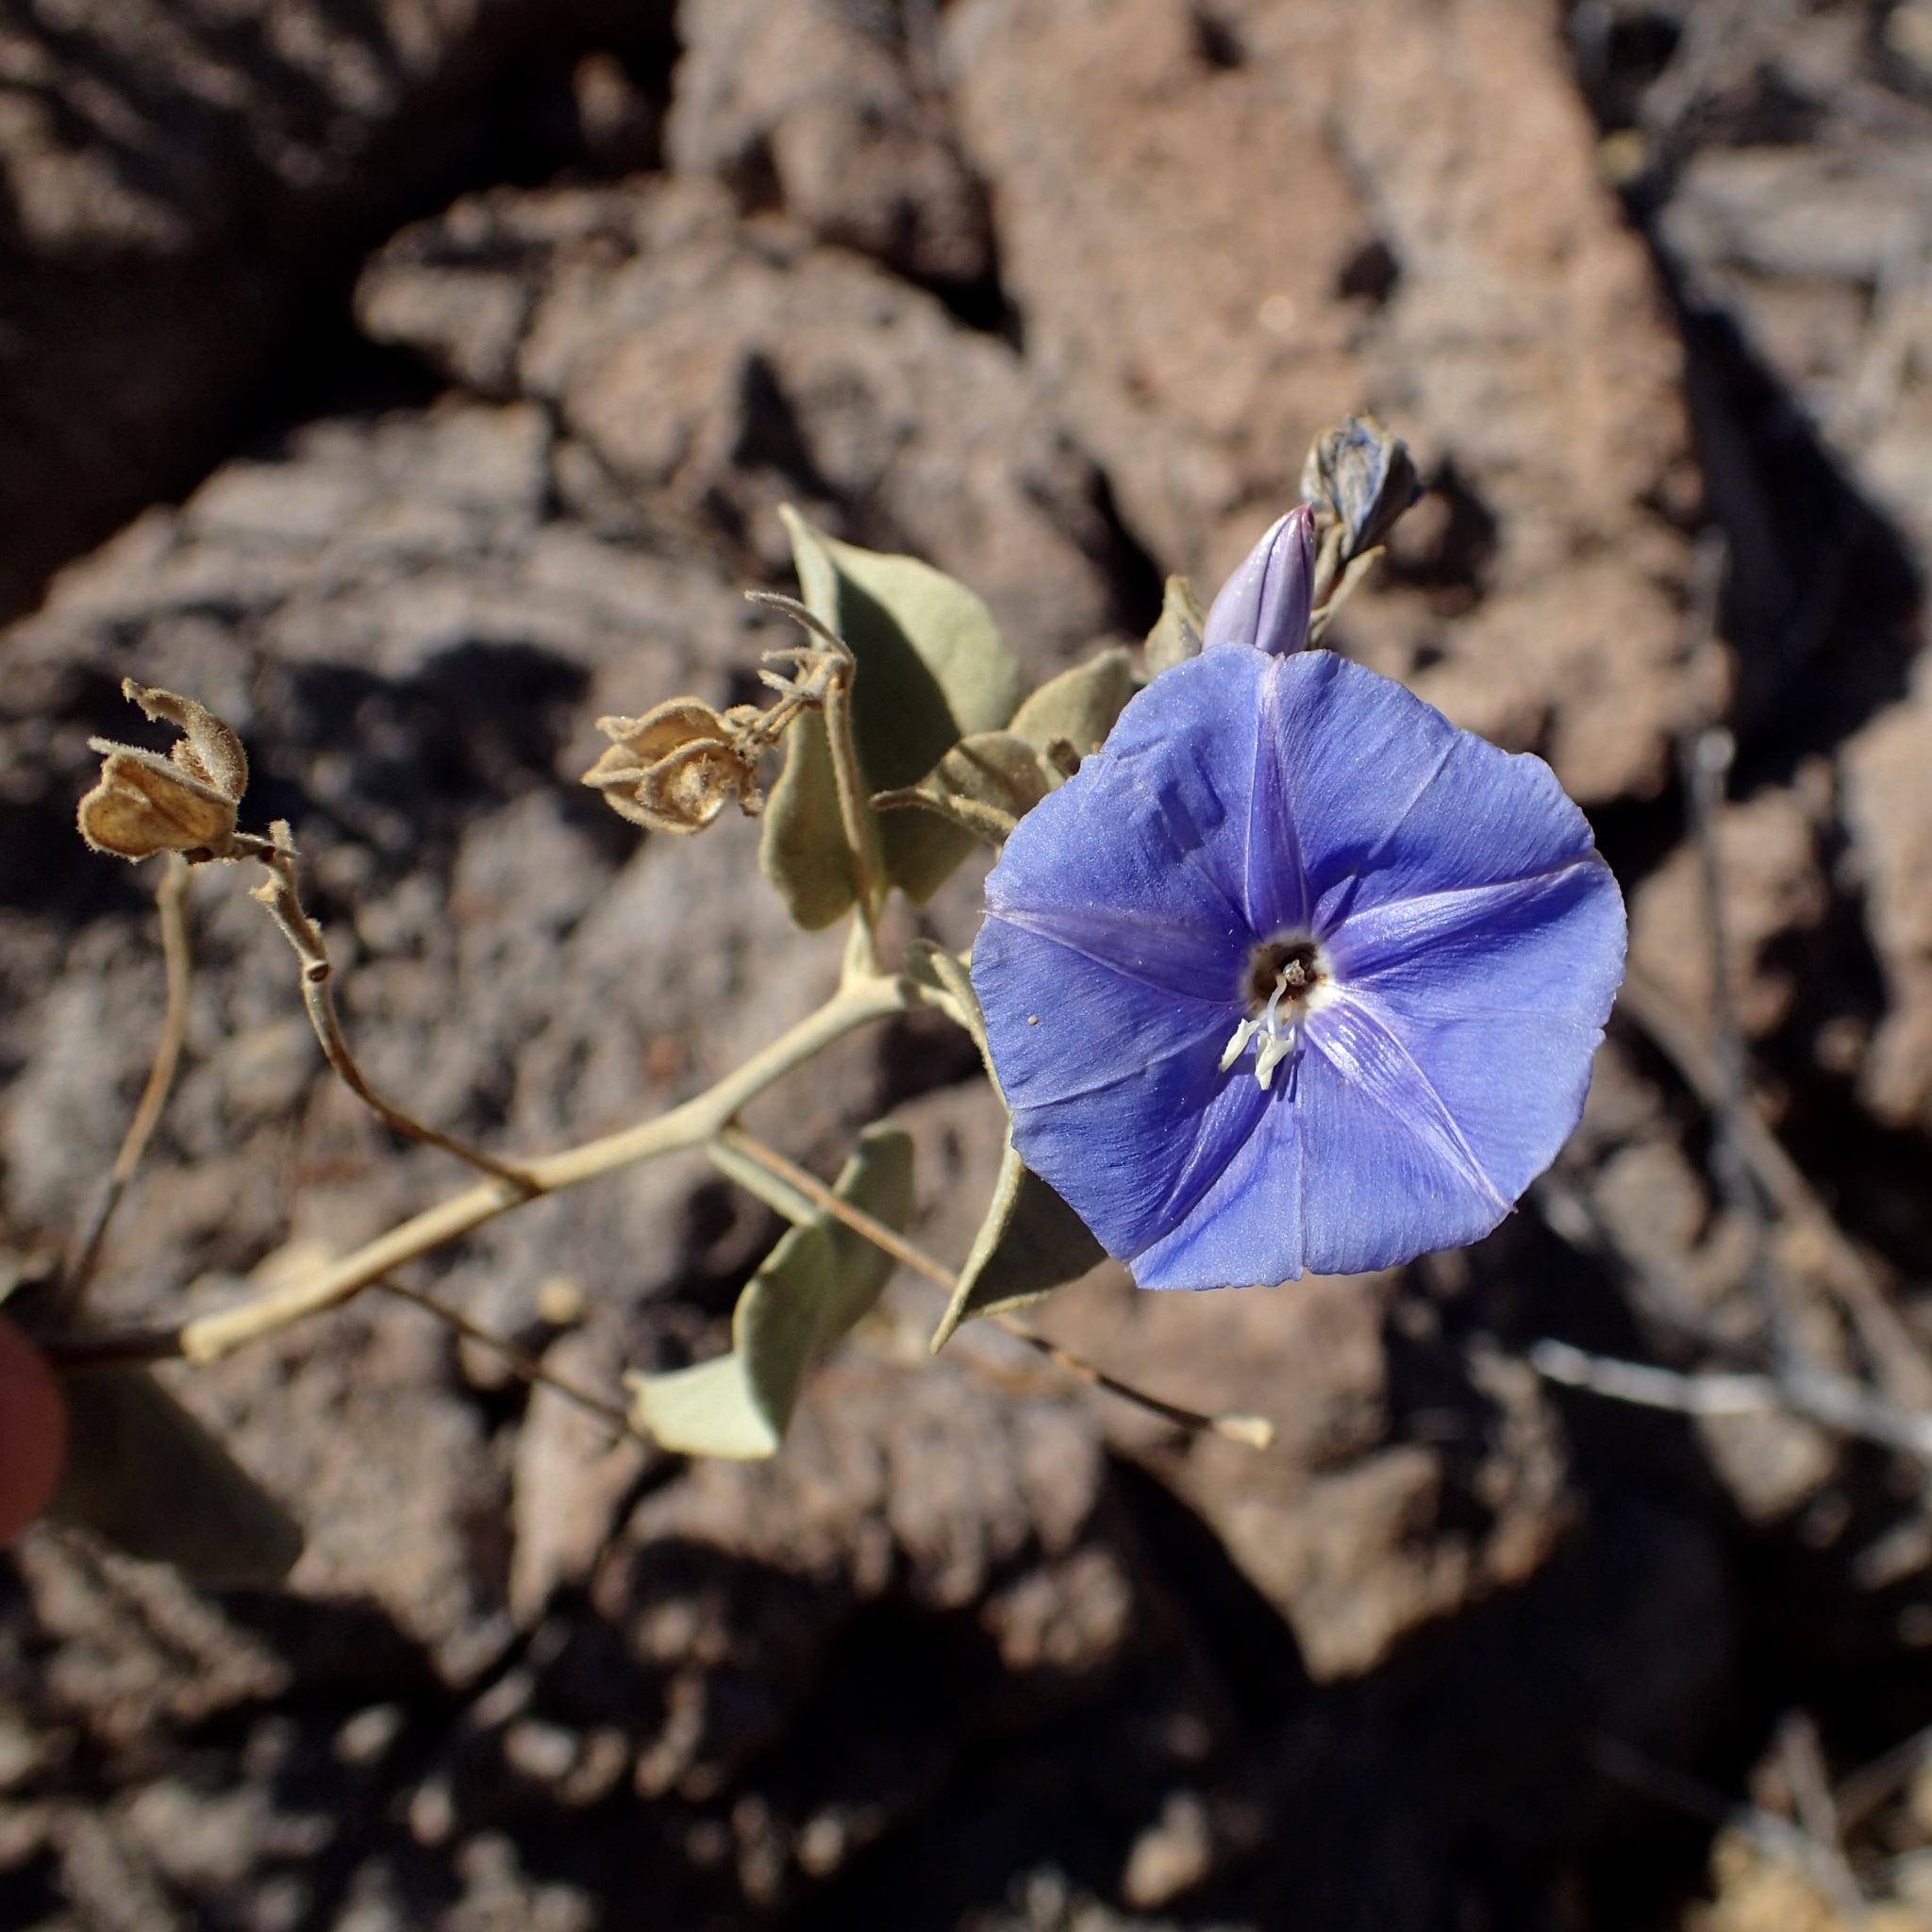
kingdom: Plantae
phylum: Tracheophyta
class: Magnoliopsida
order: Solanales
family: Convolvulaceae
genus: Jacquemontia
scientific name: Jacquemontia abutiloides
